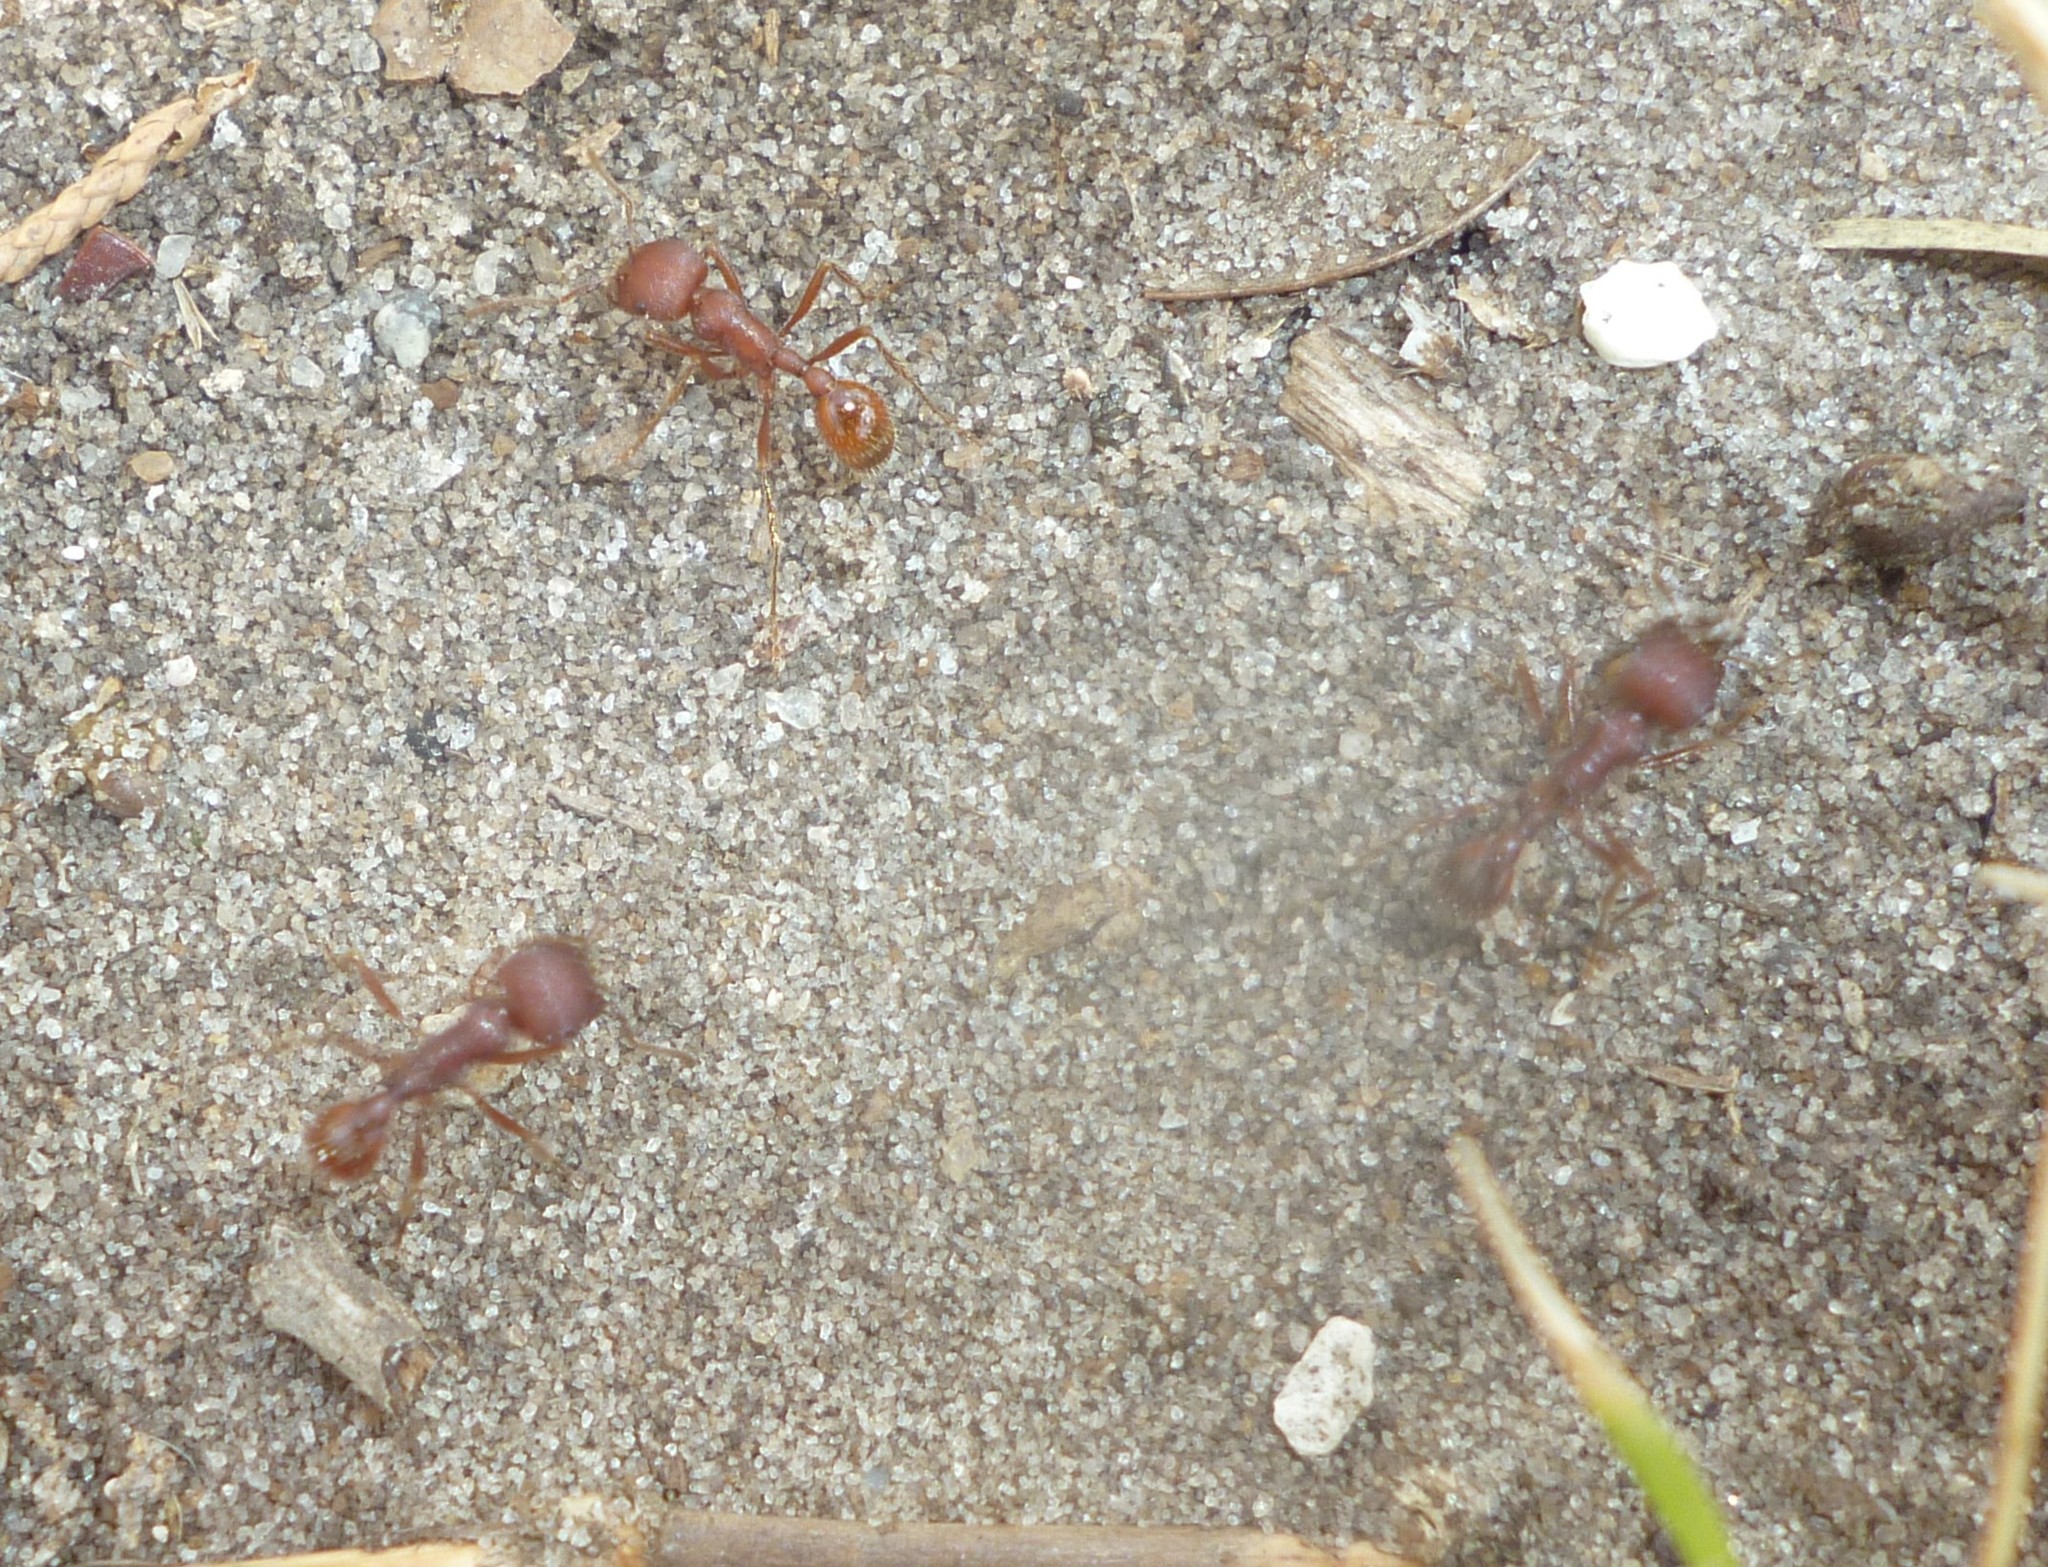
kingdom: Animalia
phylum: Arthropoda
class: Insecta
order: Hymenoptera
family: Formicidae
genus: Pogonomyrmex
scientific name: Pogonomyrmex badius
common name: Florida harvester ant
